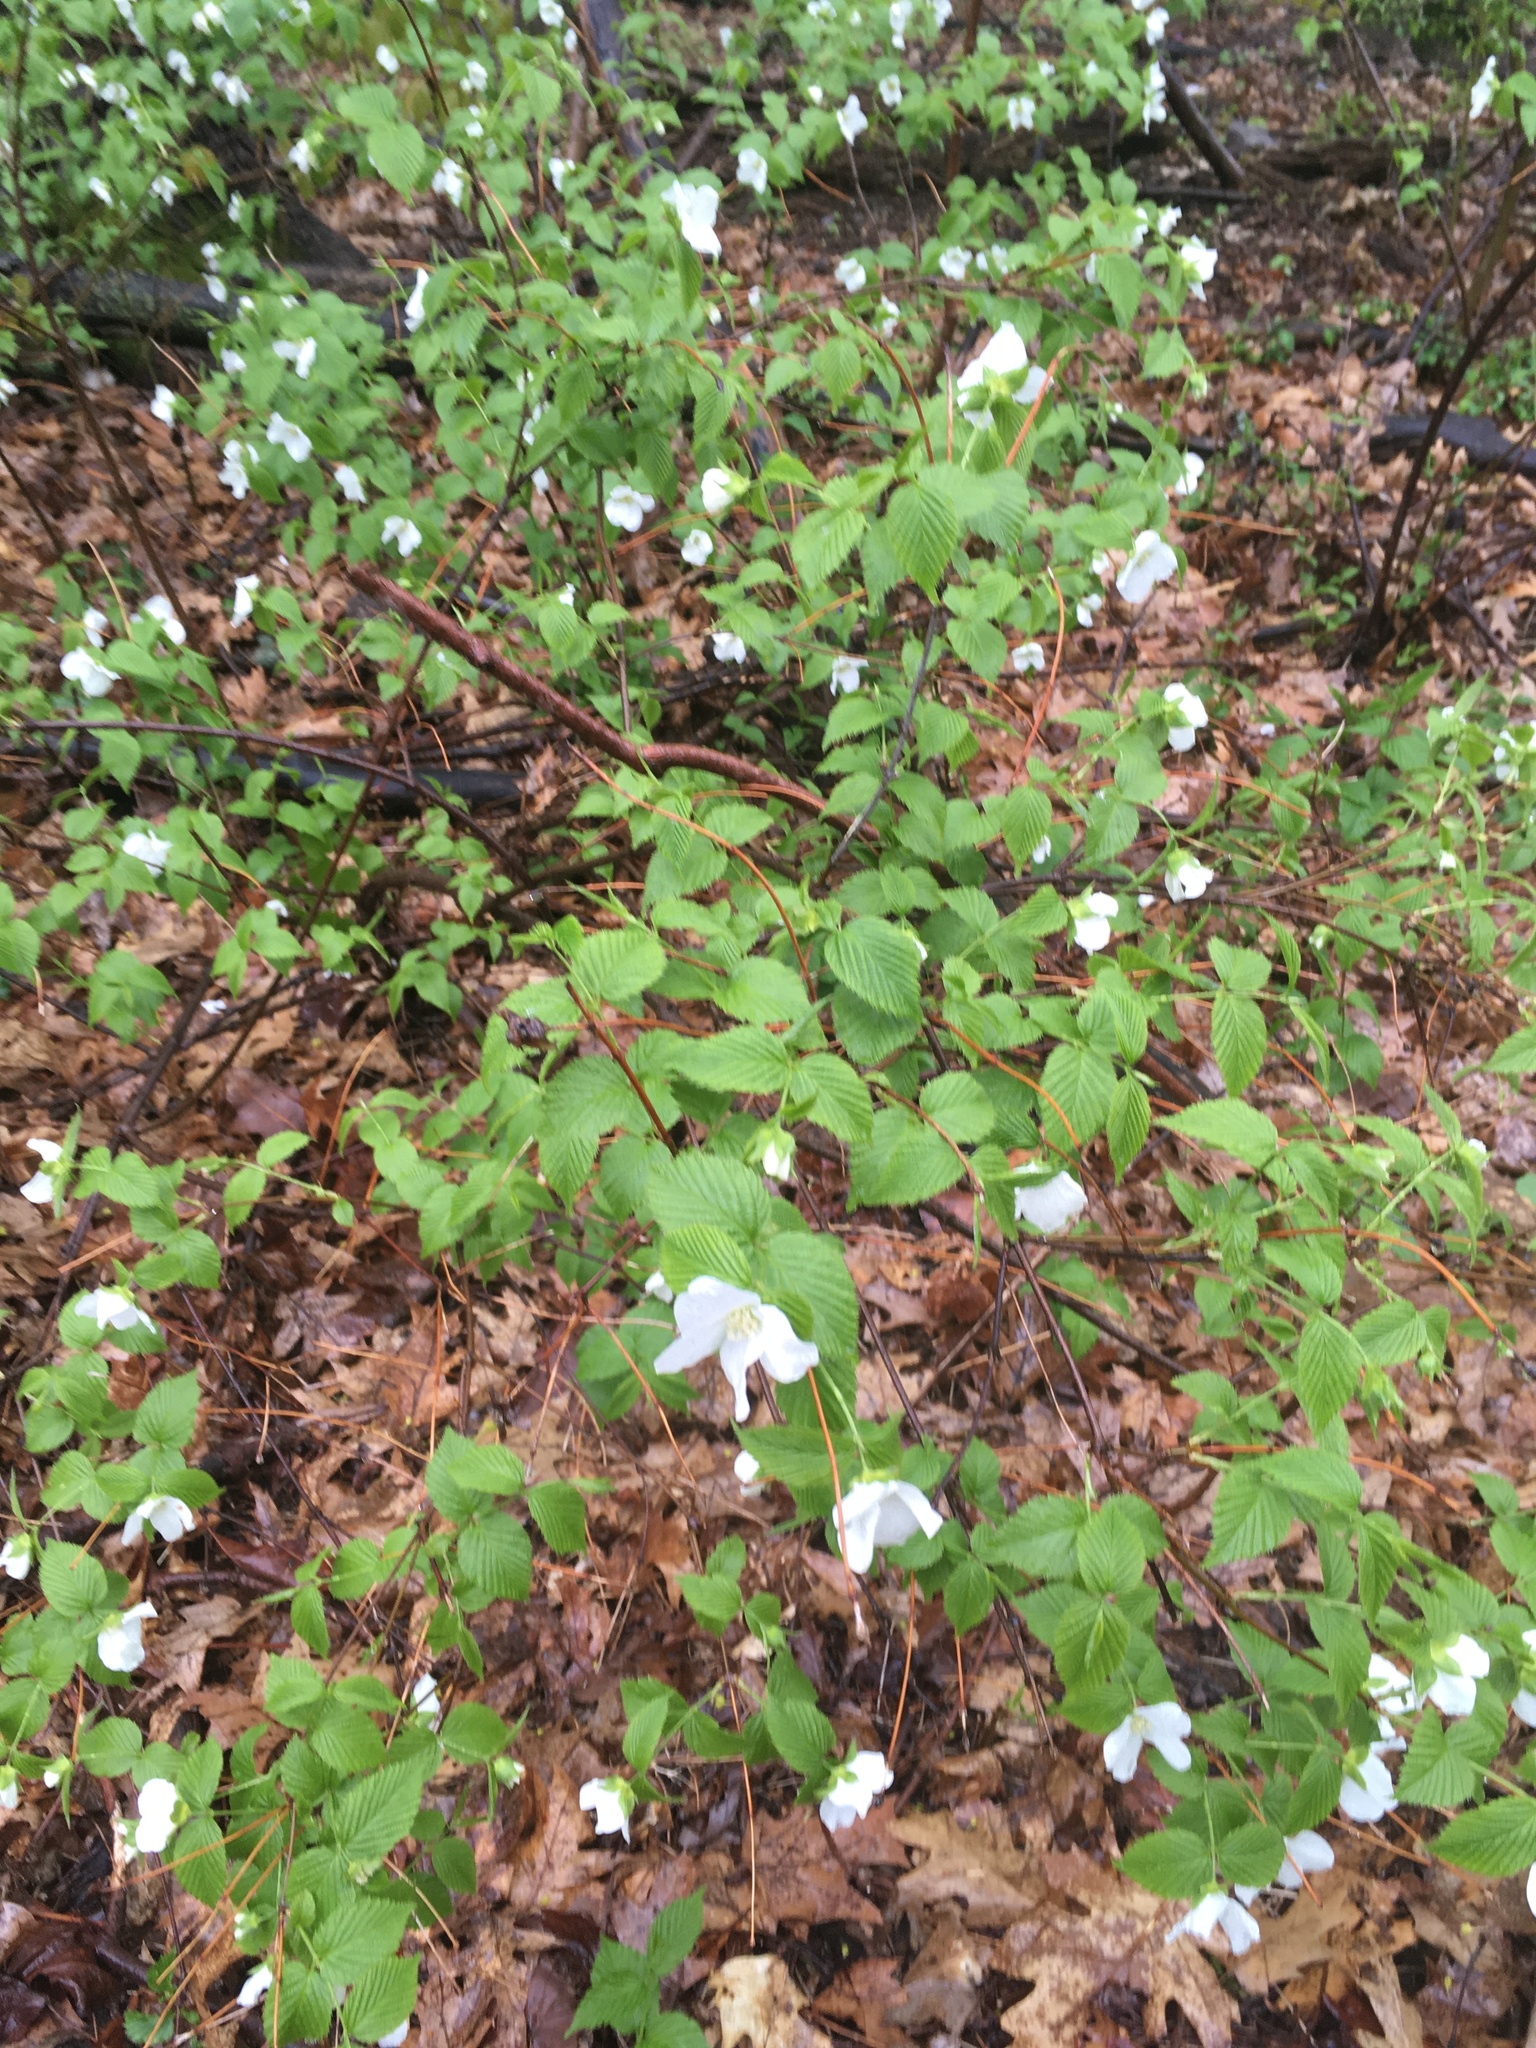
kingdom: Plantae
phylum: Tracheophyta
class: Magnoliopsida
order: Rosales
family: Rosaceae
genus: Rhodotypos
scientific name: Rhodotypos scandens
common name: Jetbead
